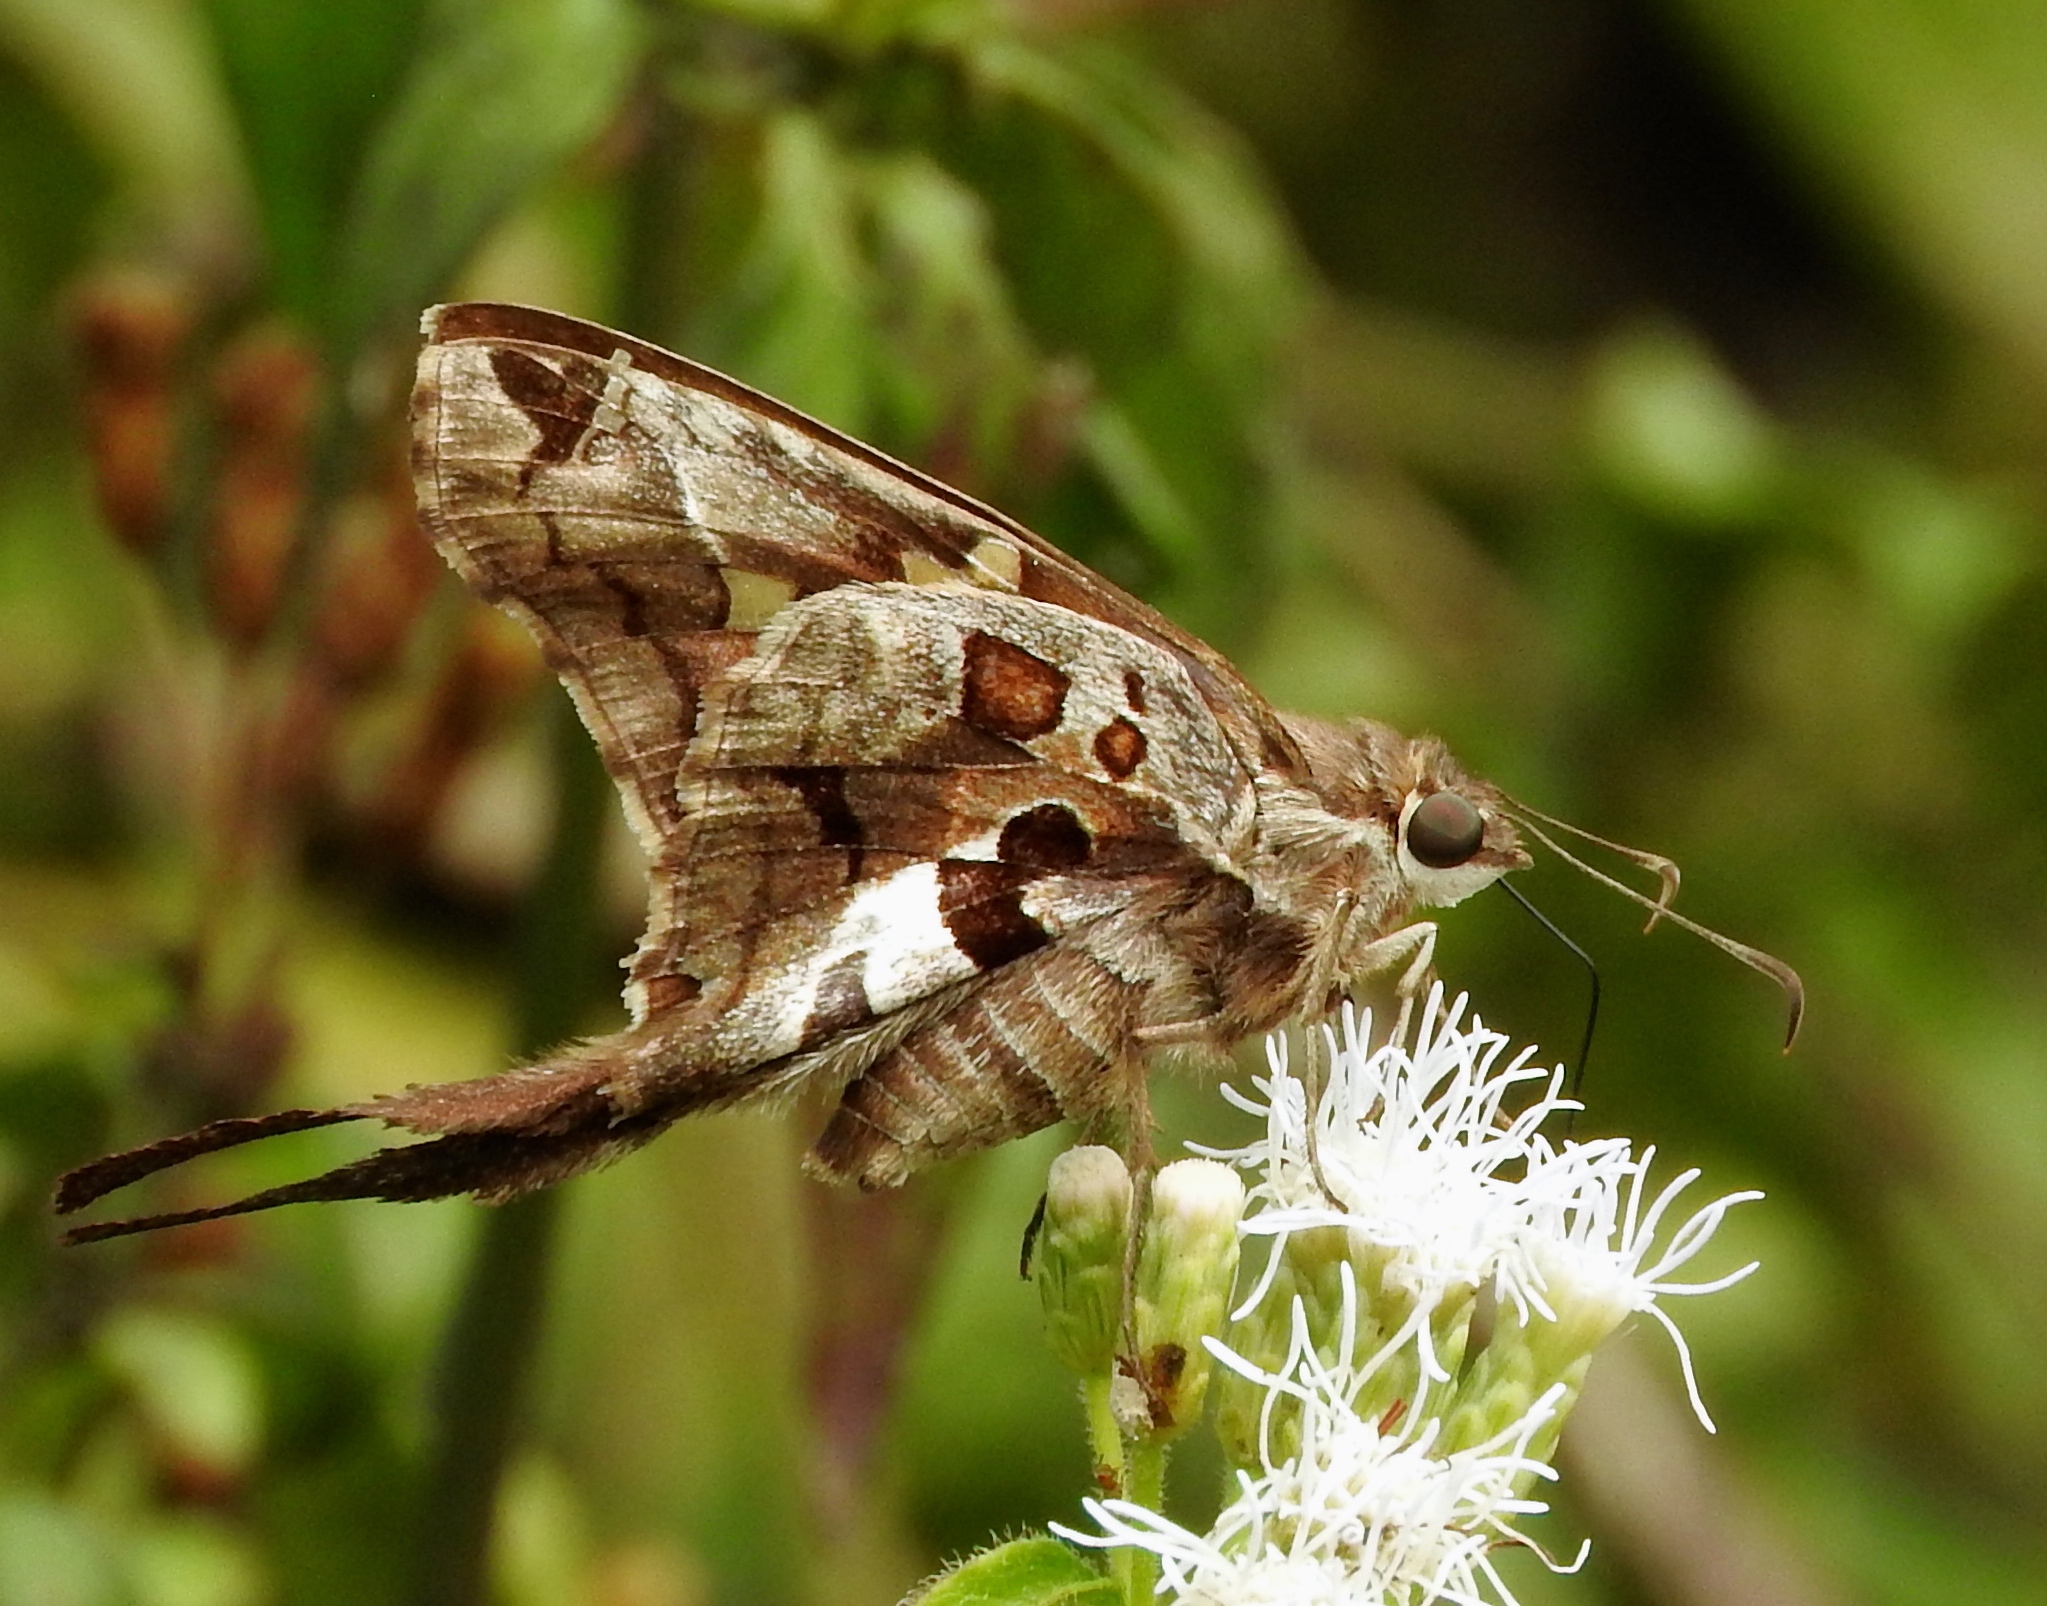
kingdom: Animalia
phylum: Arthropoda
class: Insecta
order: Lepidoptera
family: Hesperiidae
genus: Chioides
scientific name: Chioides zilpa
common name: Zilpa longtail
